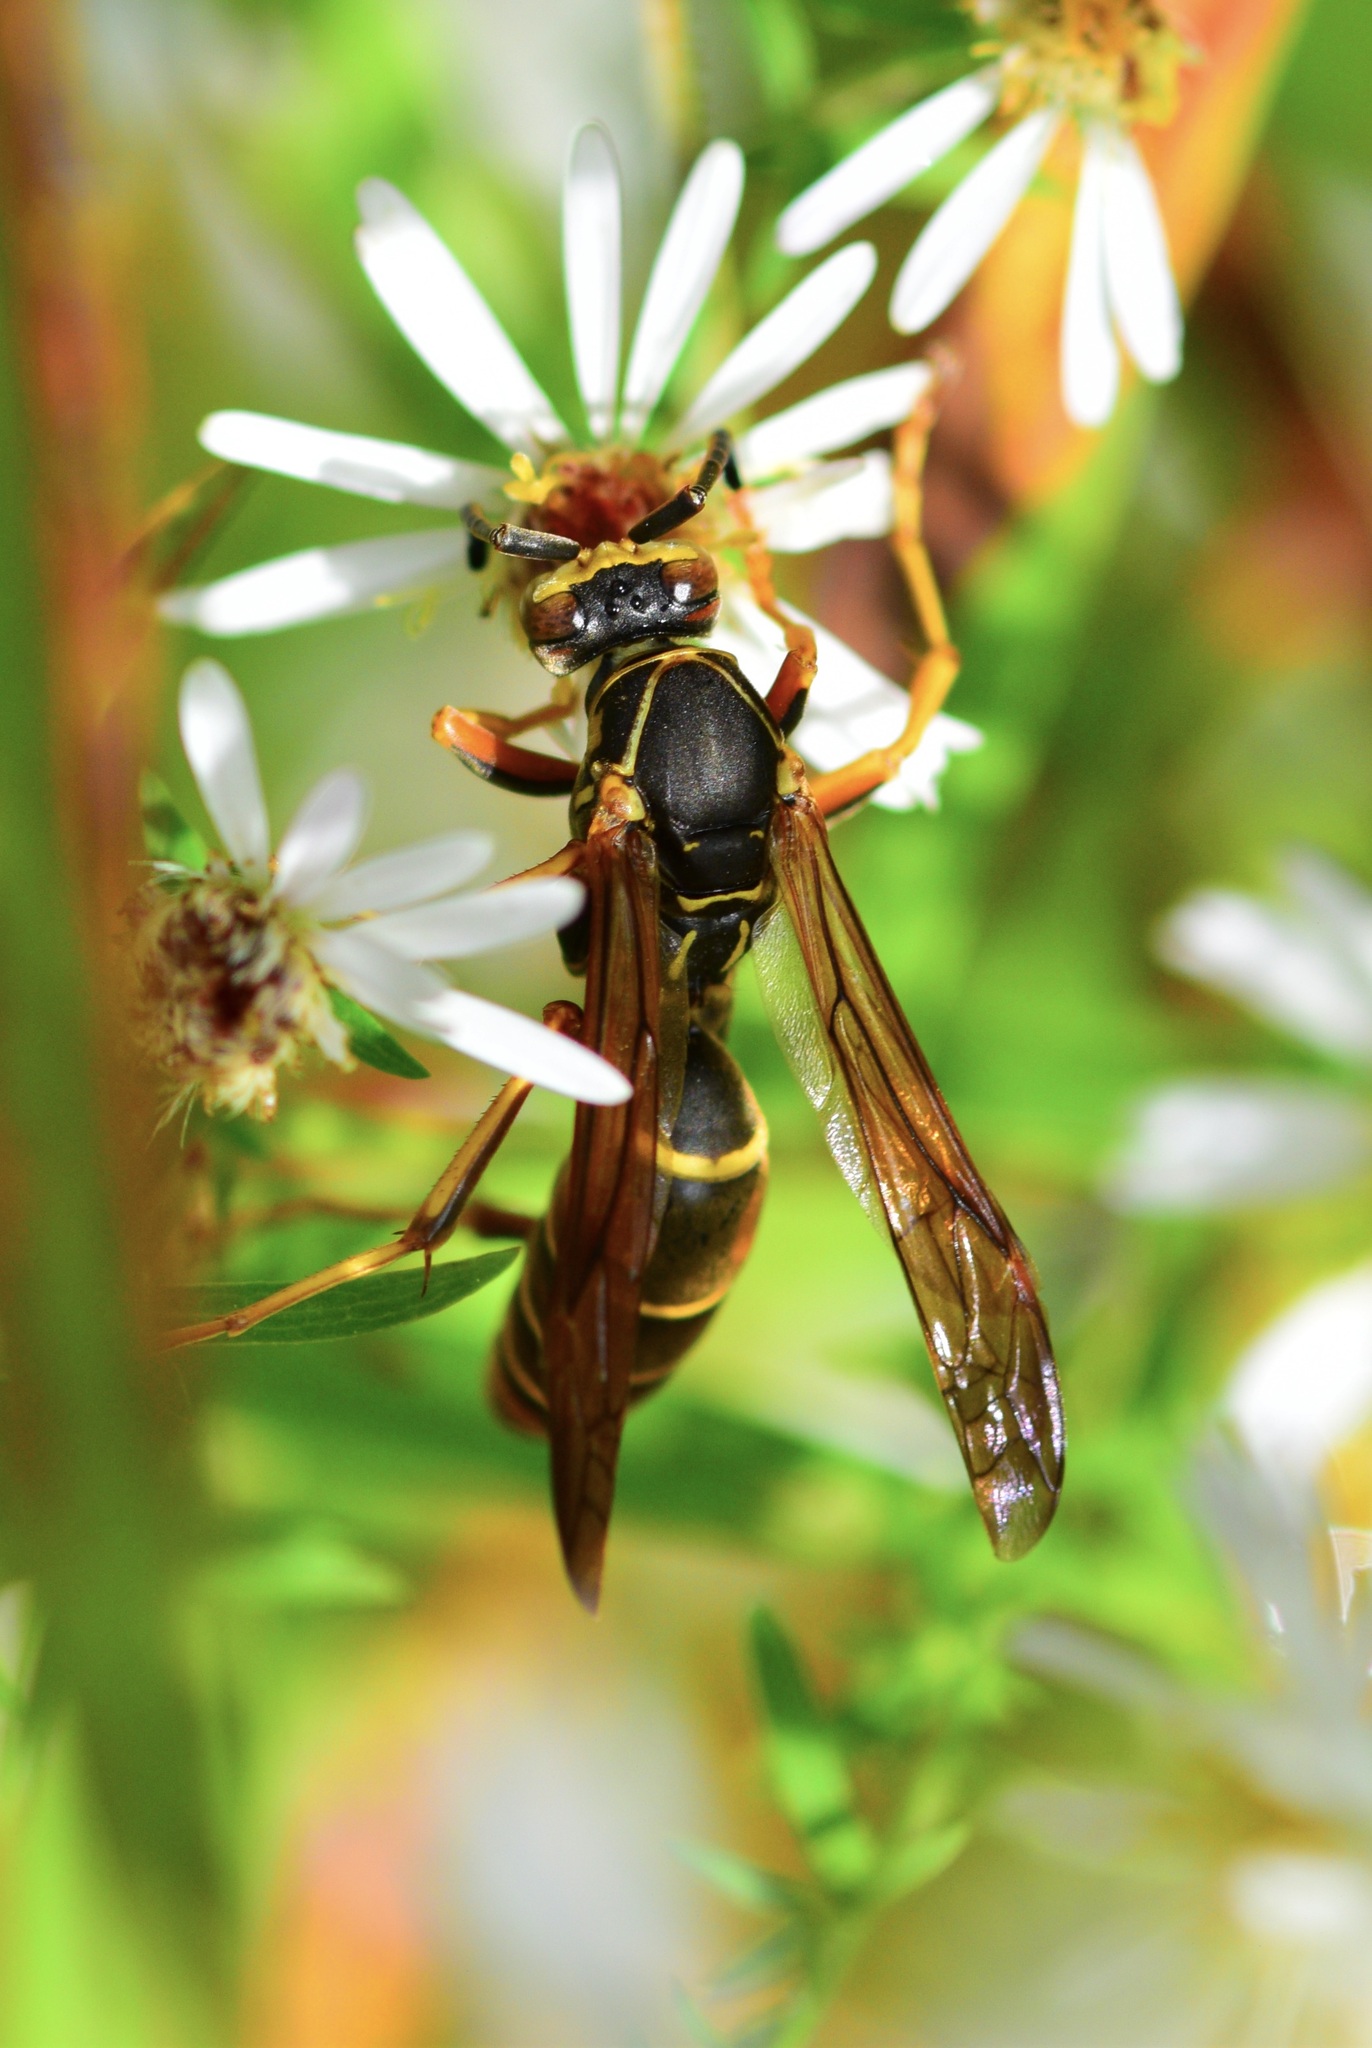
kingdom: Animalia
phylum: Arthropoda
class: Insecta
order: Hymenoptera
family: Eumenidae
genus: Polistes
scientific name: Polistes fuscatus
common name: Dark paper wasp
